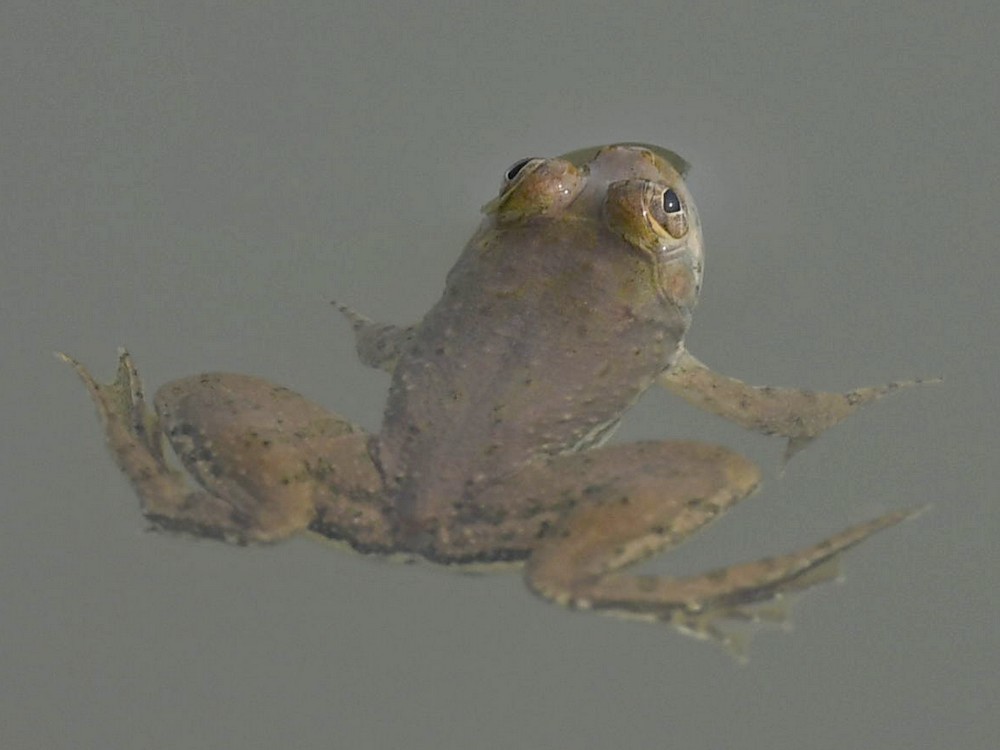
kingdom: Animalia
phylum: Chordata
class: Amphibia
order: Anura
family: Dicroglossidae
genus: Euphlyctis
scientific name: Euphlyctis cyanophlyctis
